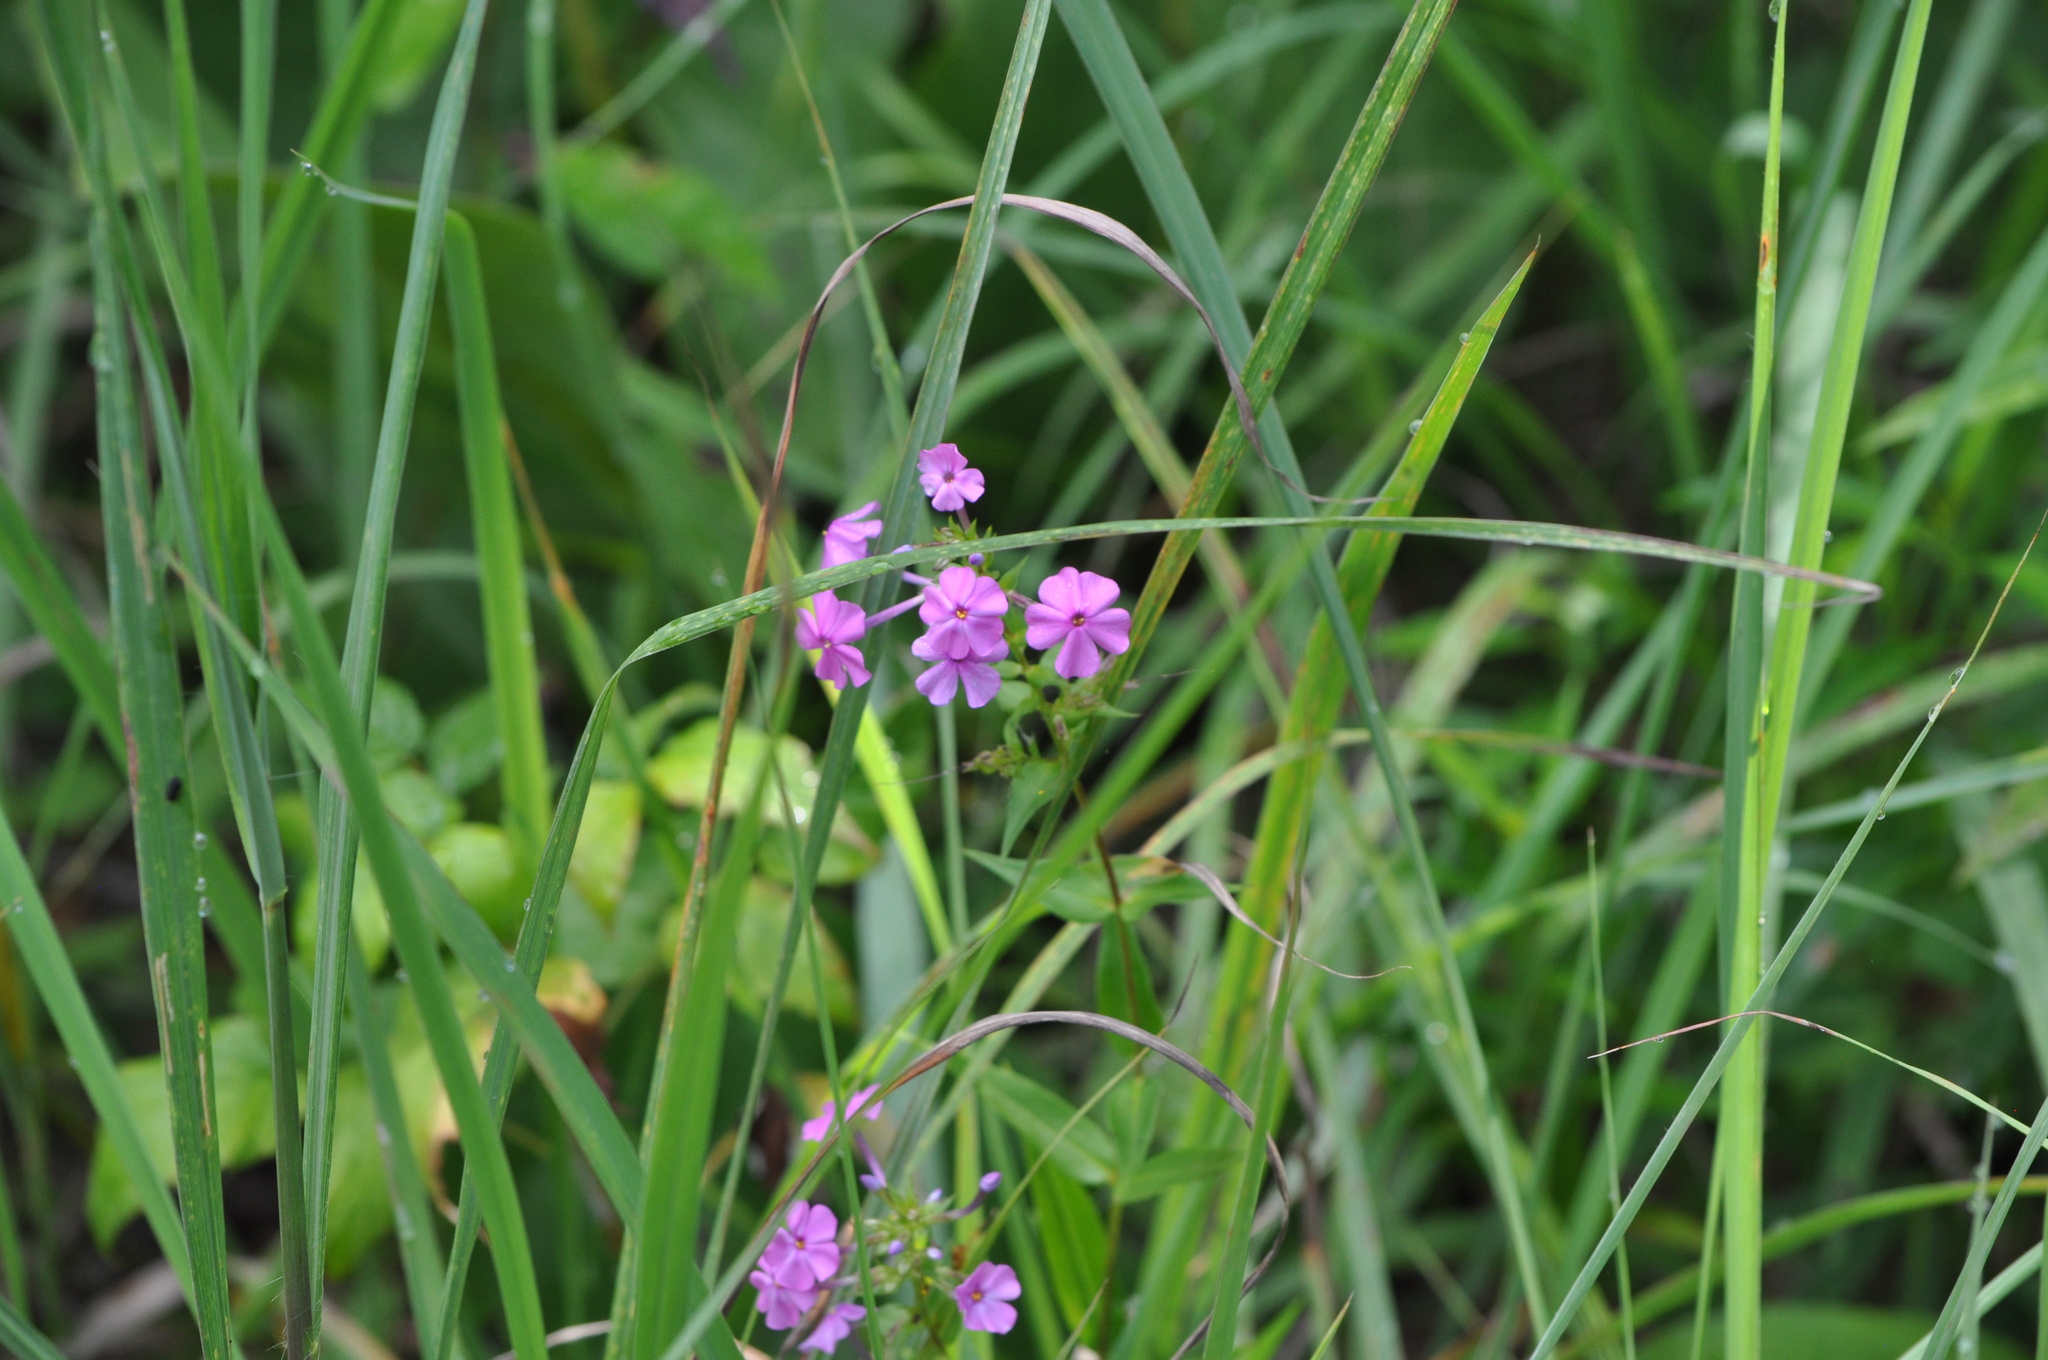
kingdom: Plantae
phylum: Tracheophyta
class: Magnoliopsida
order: Ericales
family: Polemoniaceae
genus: Phlox
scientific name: Phlox maculata
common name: Meadow phlox
